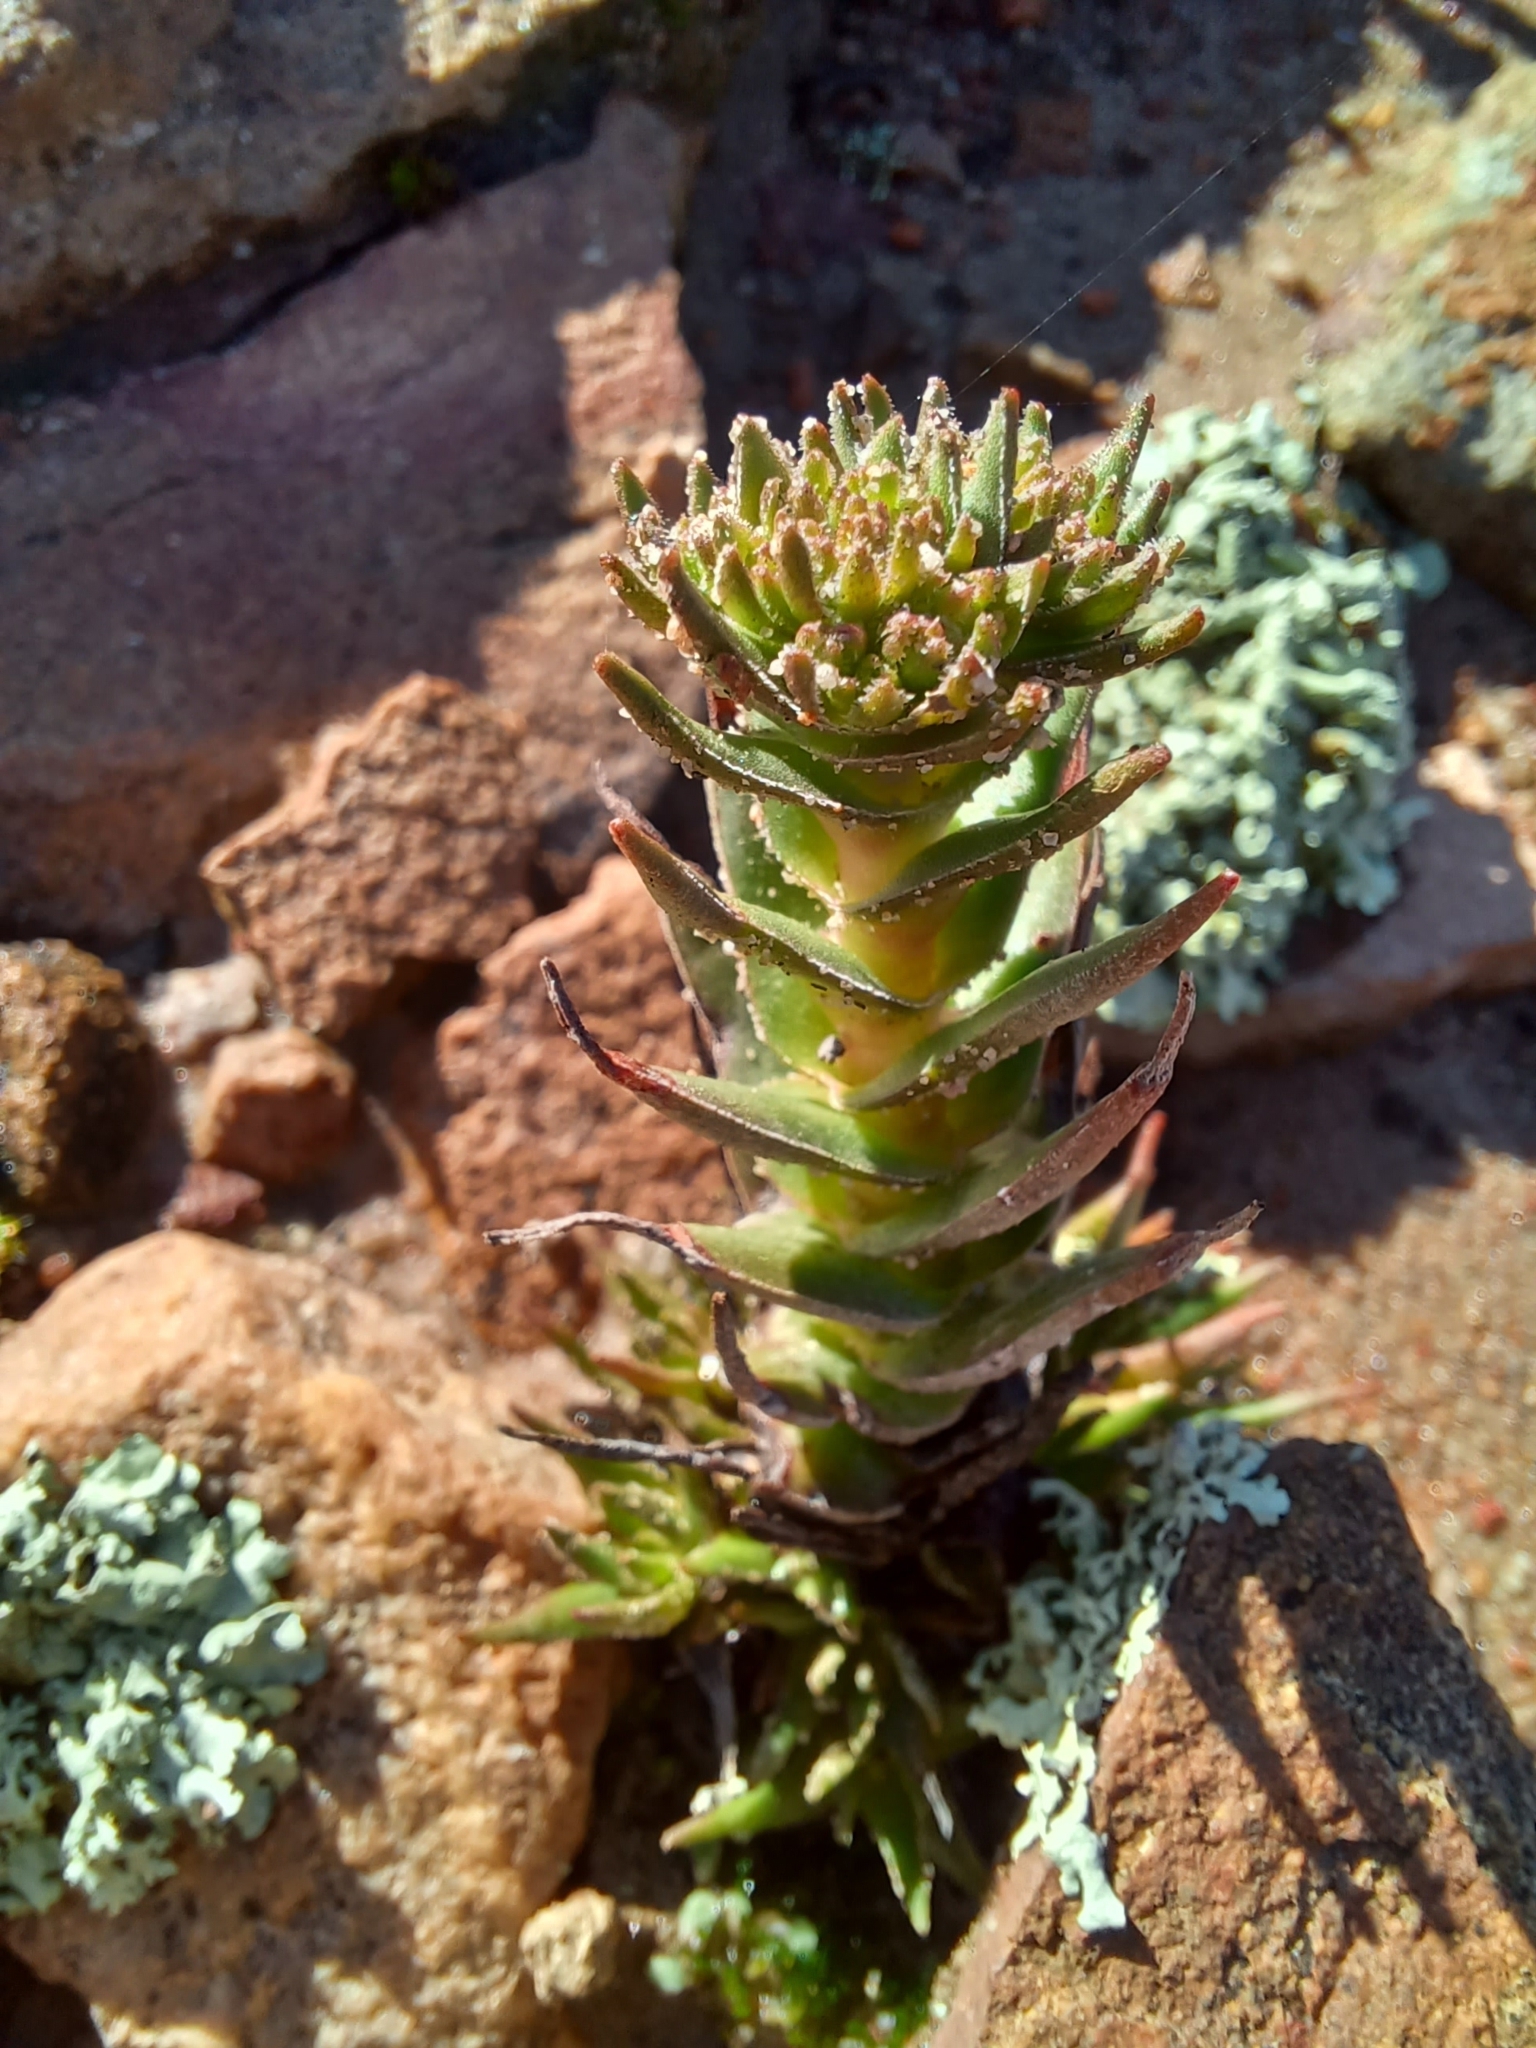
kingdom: Plantae
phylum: Tracheophyta
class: Magnoliopsida
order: Saxifragales
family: Crassulaceae
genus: Crassula
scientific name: Crassula alpestris
